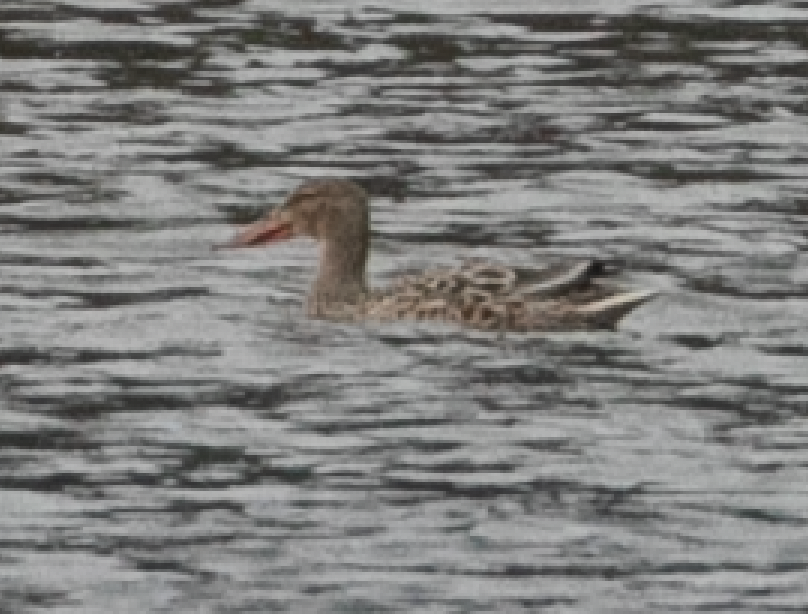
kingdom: Animalia
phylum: Chordata
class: Aves
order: Anseriformes
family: Anatidae
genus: Spatula
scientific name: Spatula clypeata
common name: Northern shoveler
